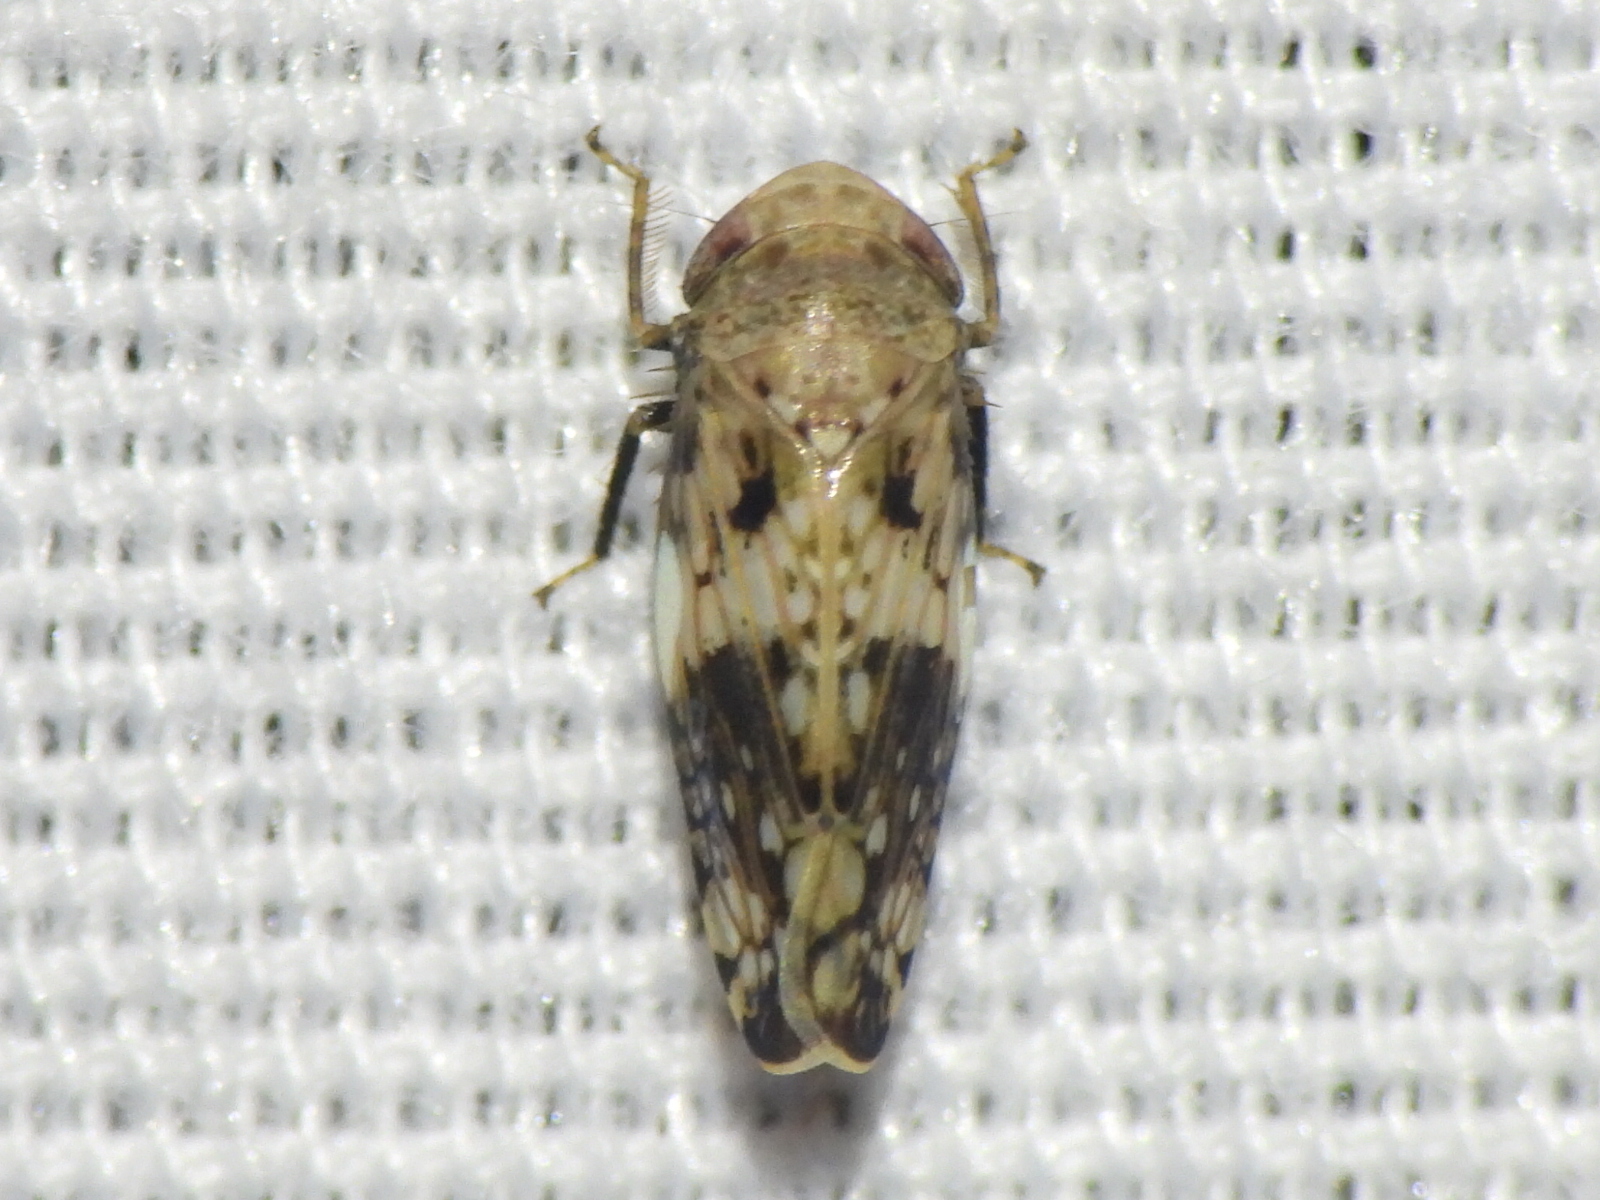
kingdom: Animalia
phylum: Arthropoda
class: Insecta
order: Hemiptera
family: Cicadellidae
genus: Menosoma
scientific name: Menosoma cinctum
